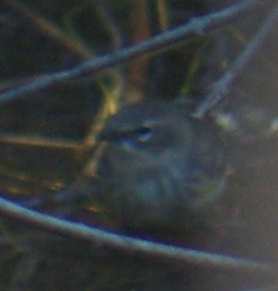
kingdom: Animalia
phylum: Chordata
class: Aves
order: Passeriformes
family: Parulidae
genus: Setophaga
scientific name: Setophaga coronata
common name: Myrtle warbler
